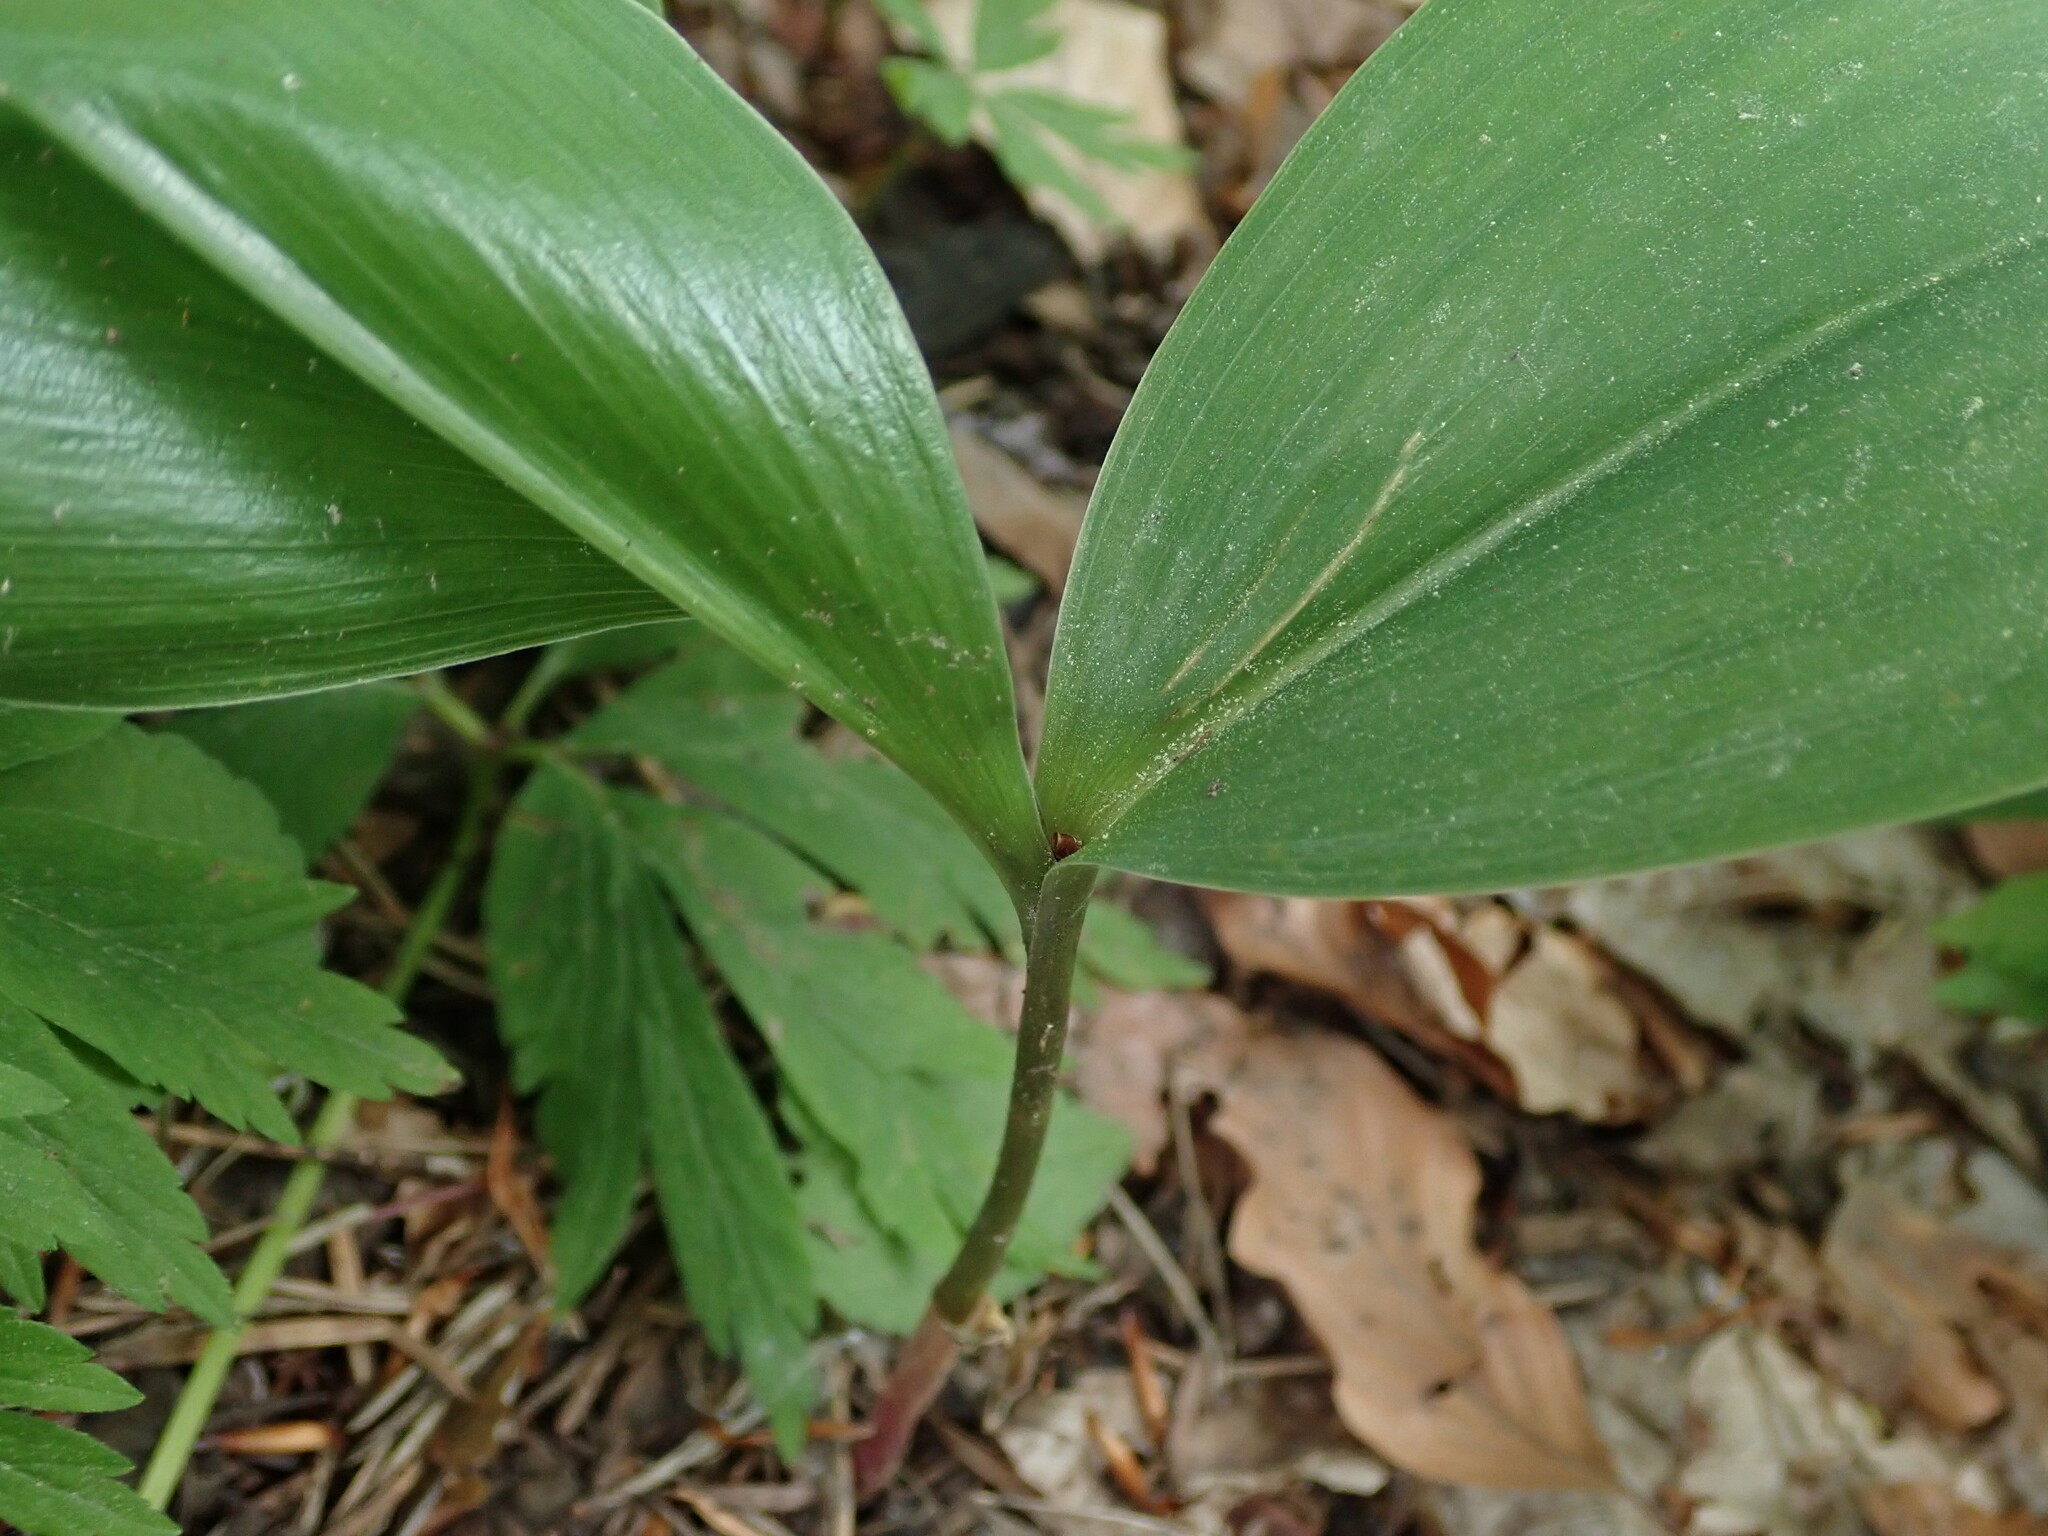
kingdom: Plantae
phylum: Tracheophyta
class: Liliopsida
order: Asparagales
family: Asparagaceae
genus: Convallaria
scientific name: Convallaria majalis
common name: Lily-of-the-valley
